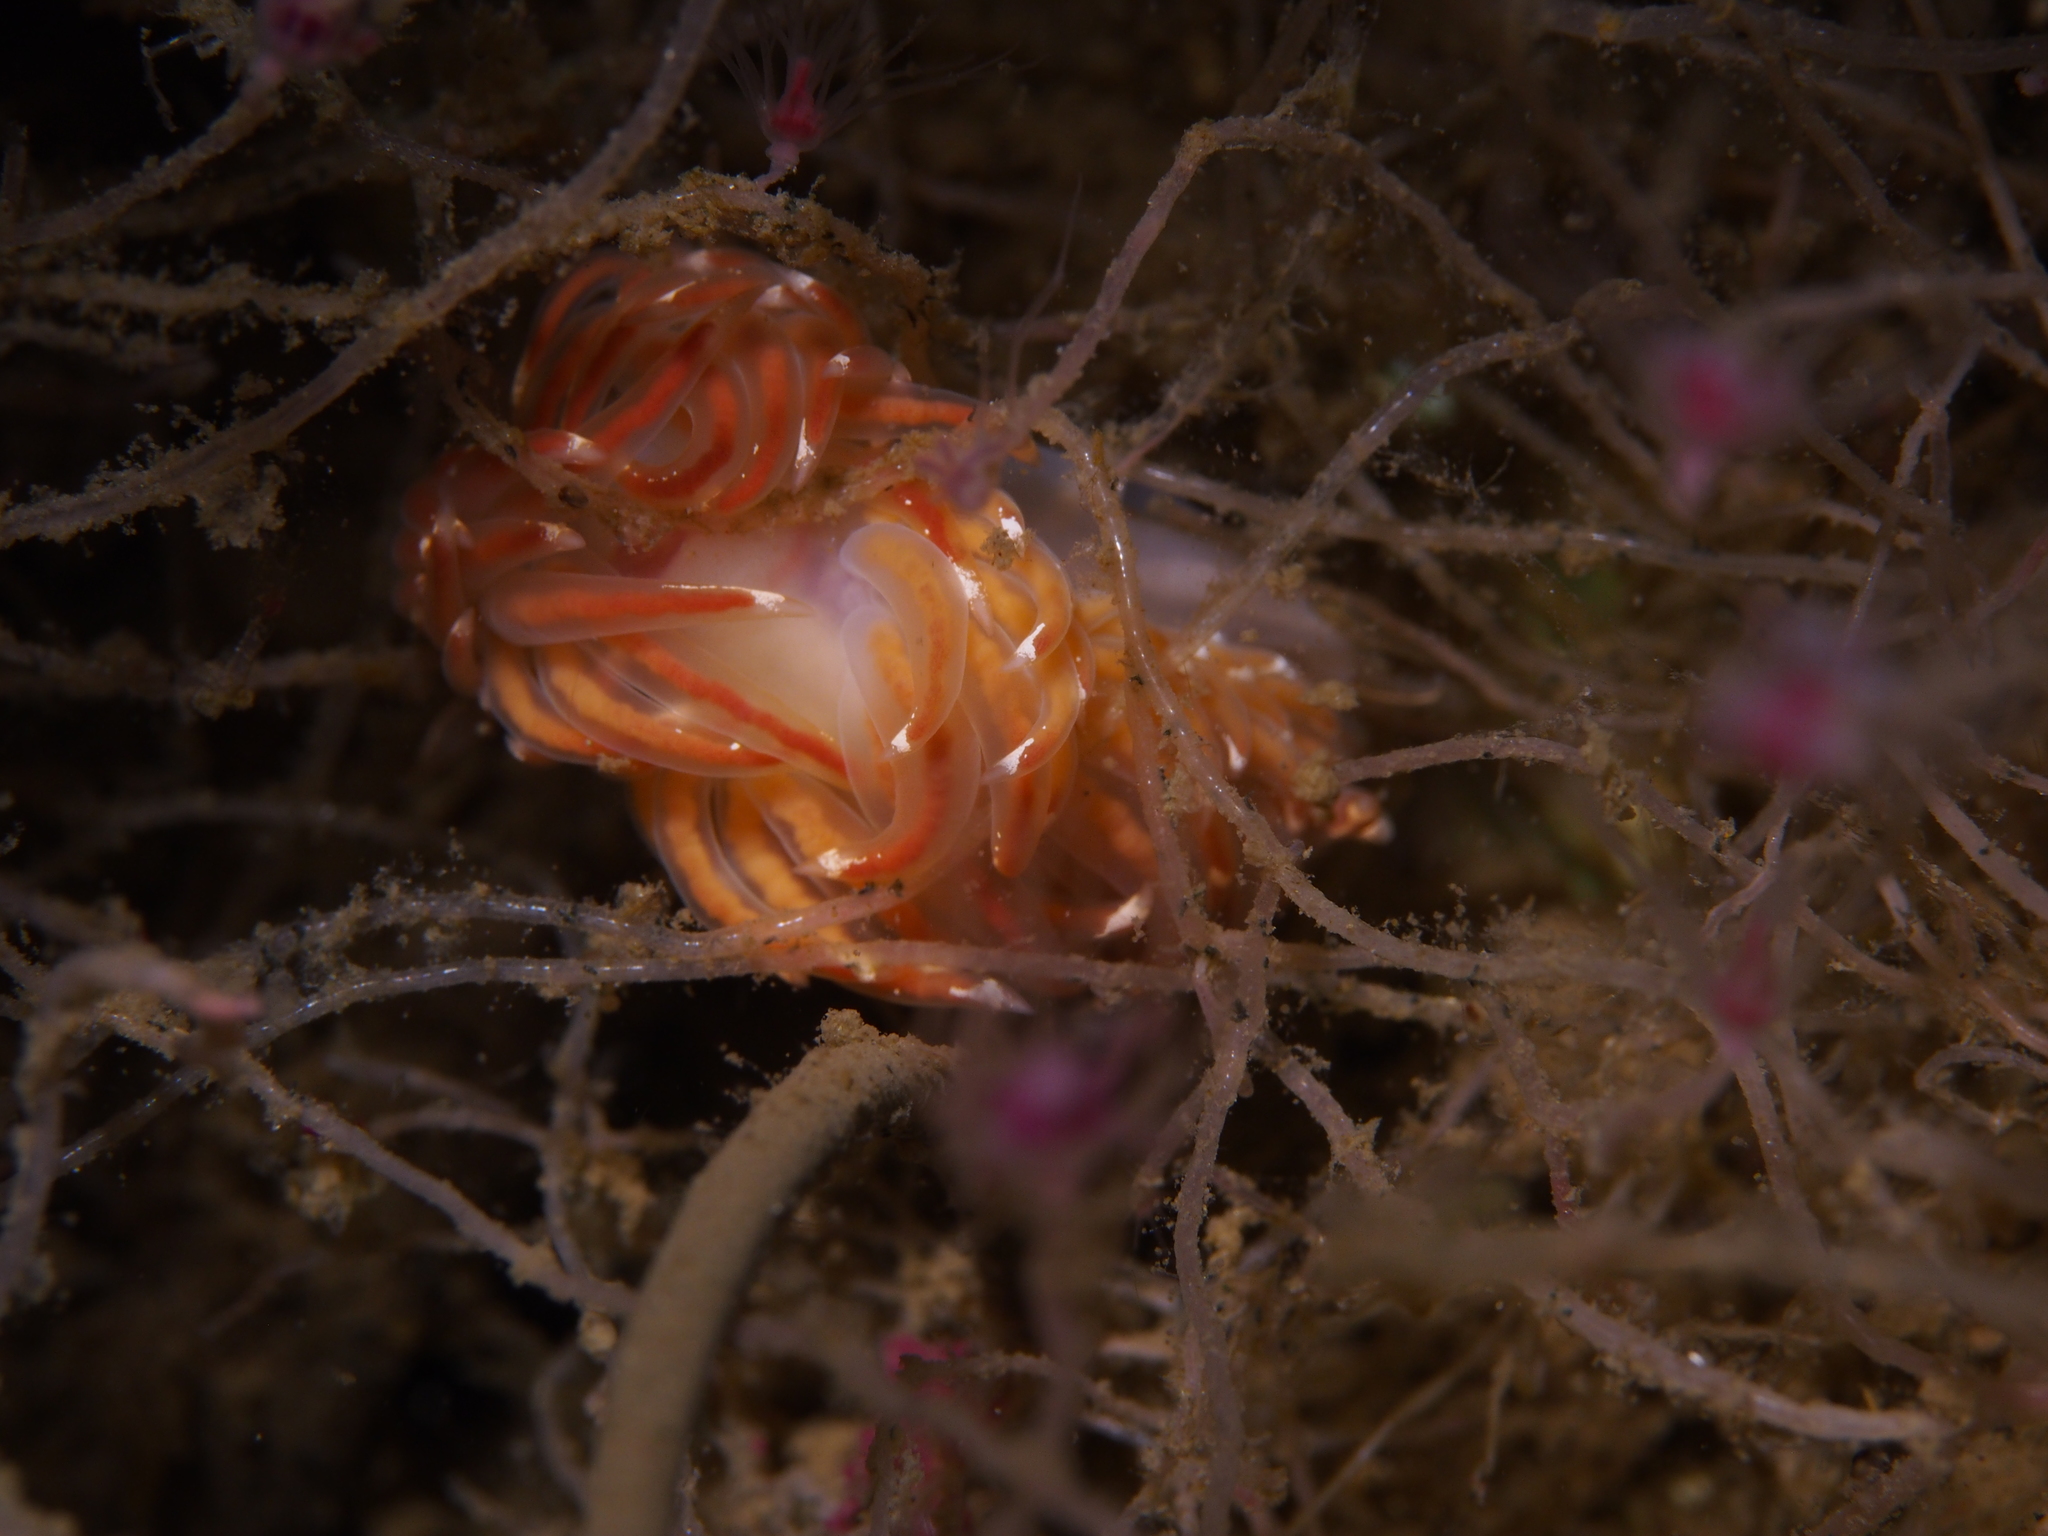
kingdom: Animalia
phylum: Mollusca
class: Gastropoda
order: Nudibranchia
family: Facelinidae
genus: Facelina
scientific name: Facelina bostoniensis
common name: Boston facelina
